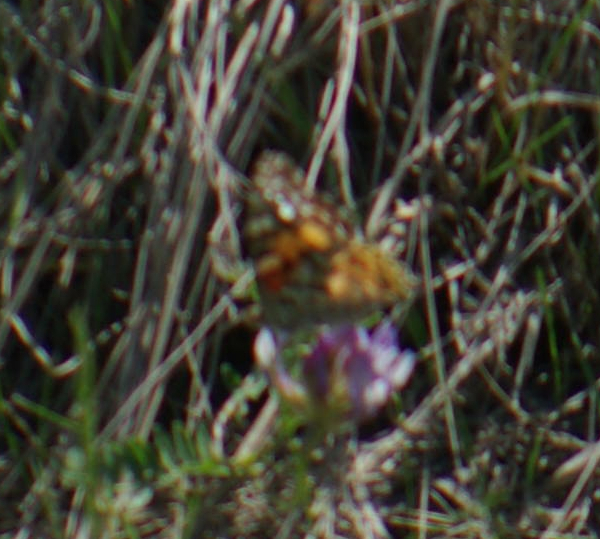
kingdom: Animalia
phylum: Arthropoda
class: Insecta
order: Lepidoptera
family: Nymphalidae
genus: Vanessa
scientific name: Vanessa cardui
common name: Painted lady
